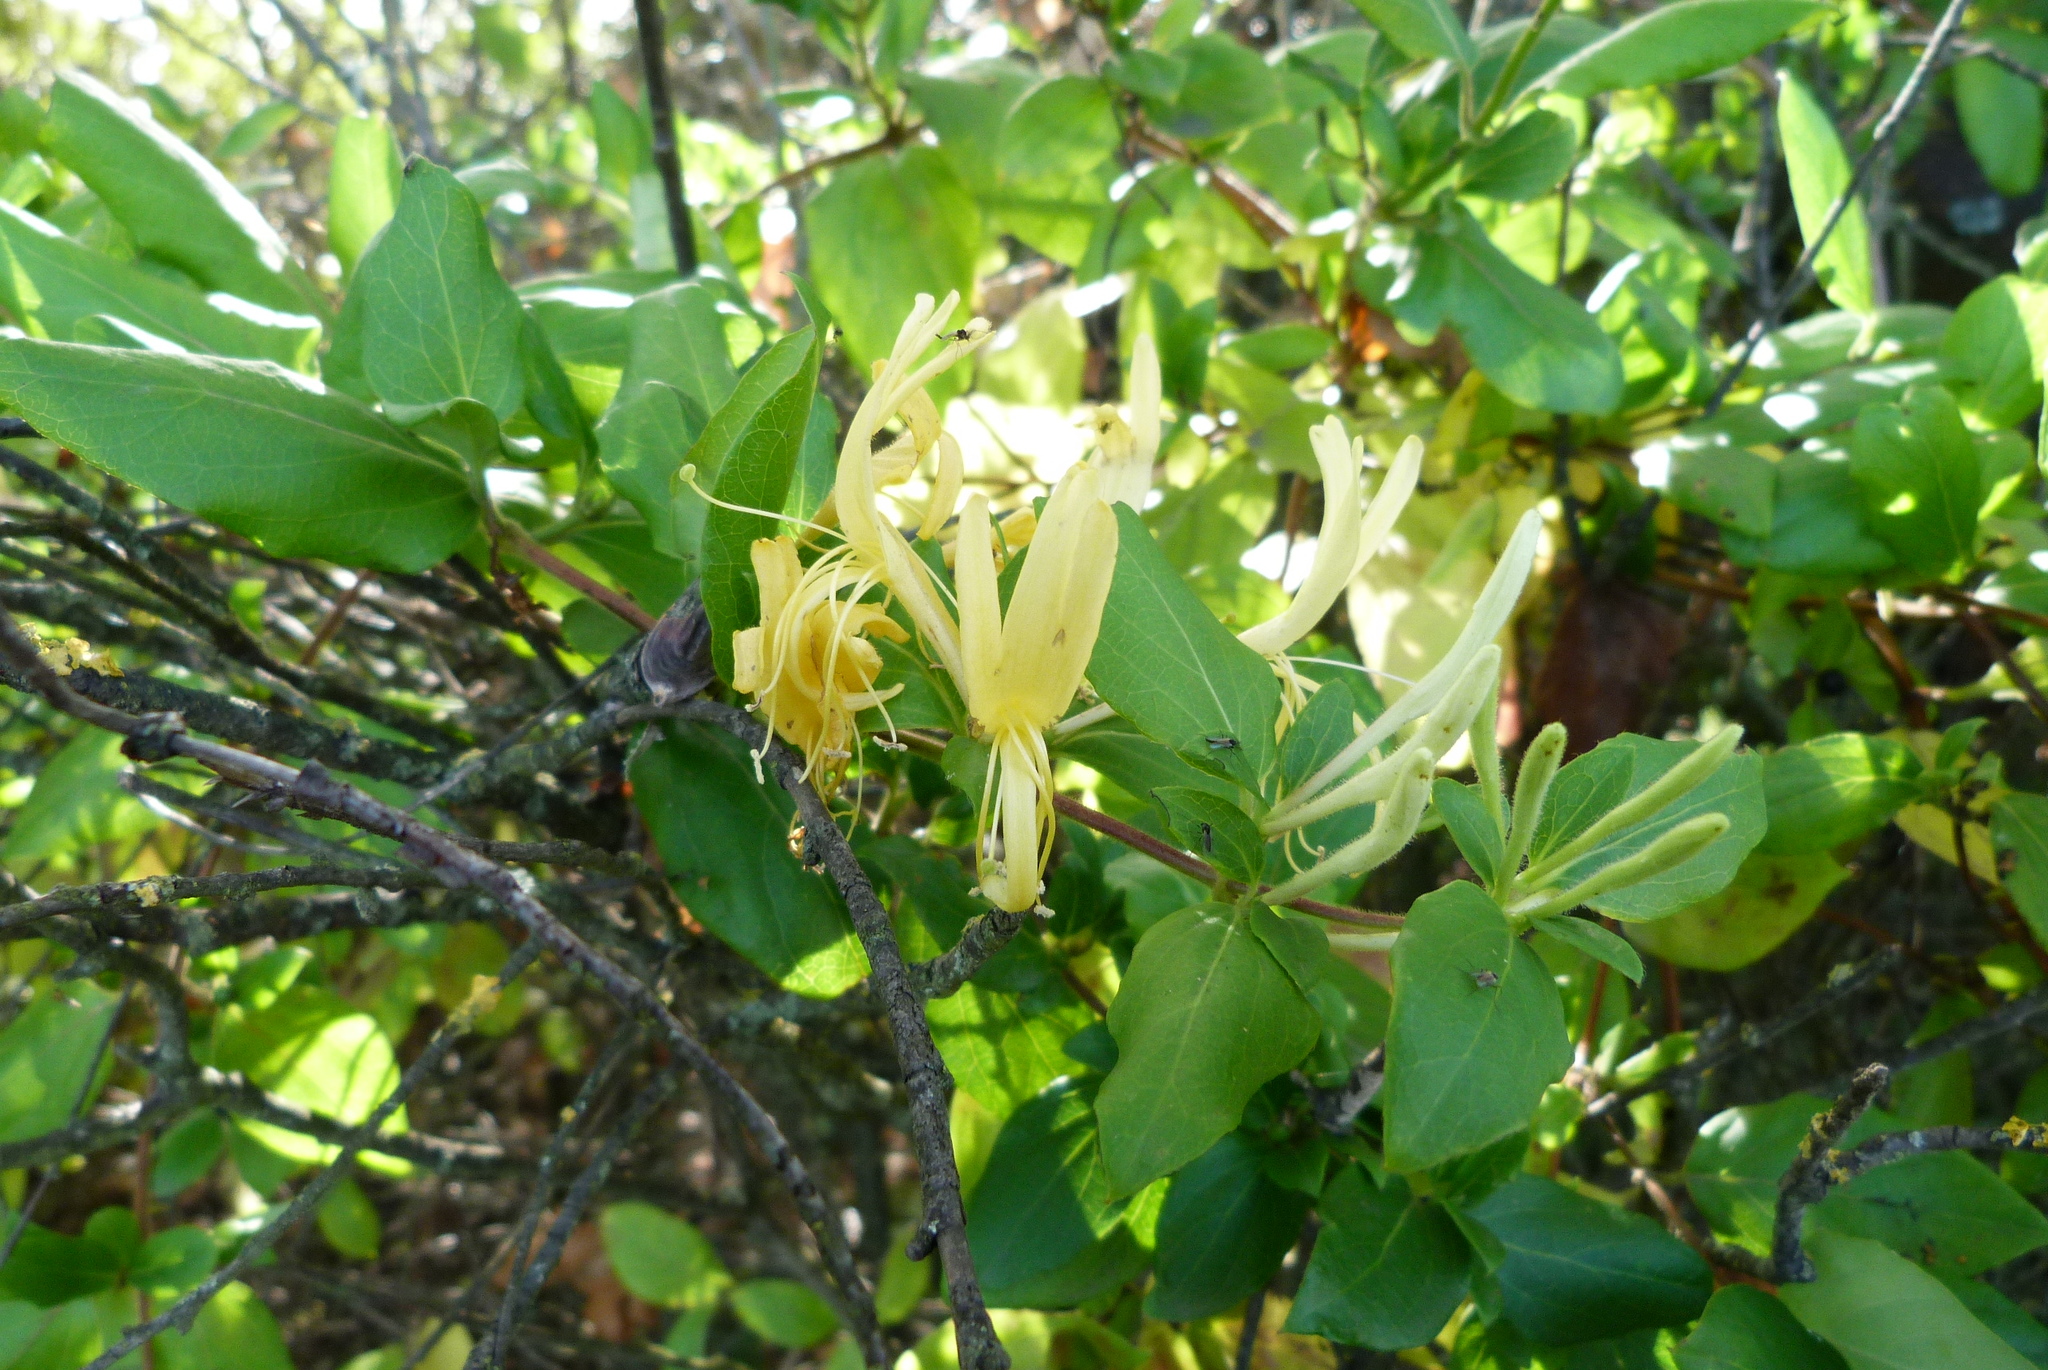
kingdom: Plantae
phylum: Tracheophyta
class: Magnoliopsida
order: Dipsacales
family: Caprifoliaceae
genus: Lonicera
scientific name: Lonicera japonica
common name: Japanese honeysuckle
